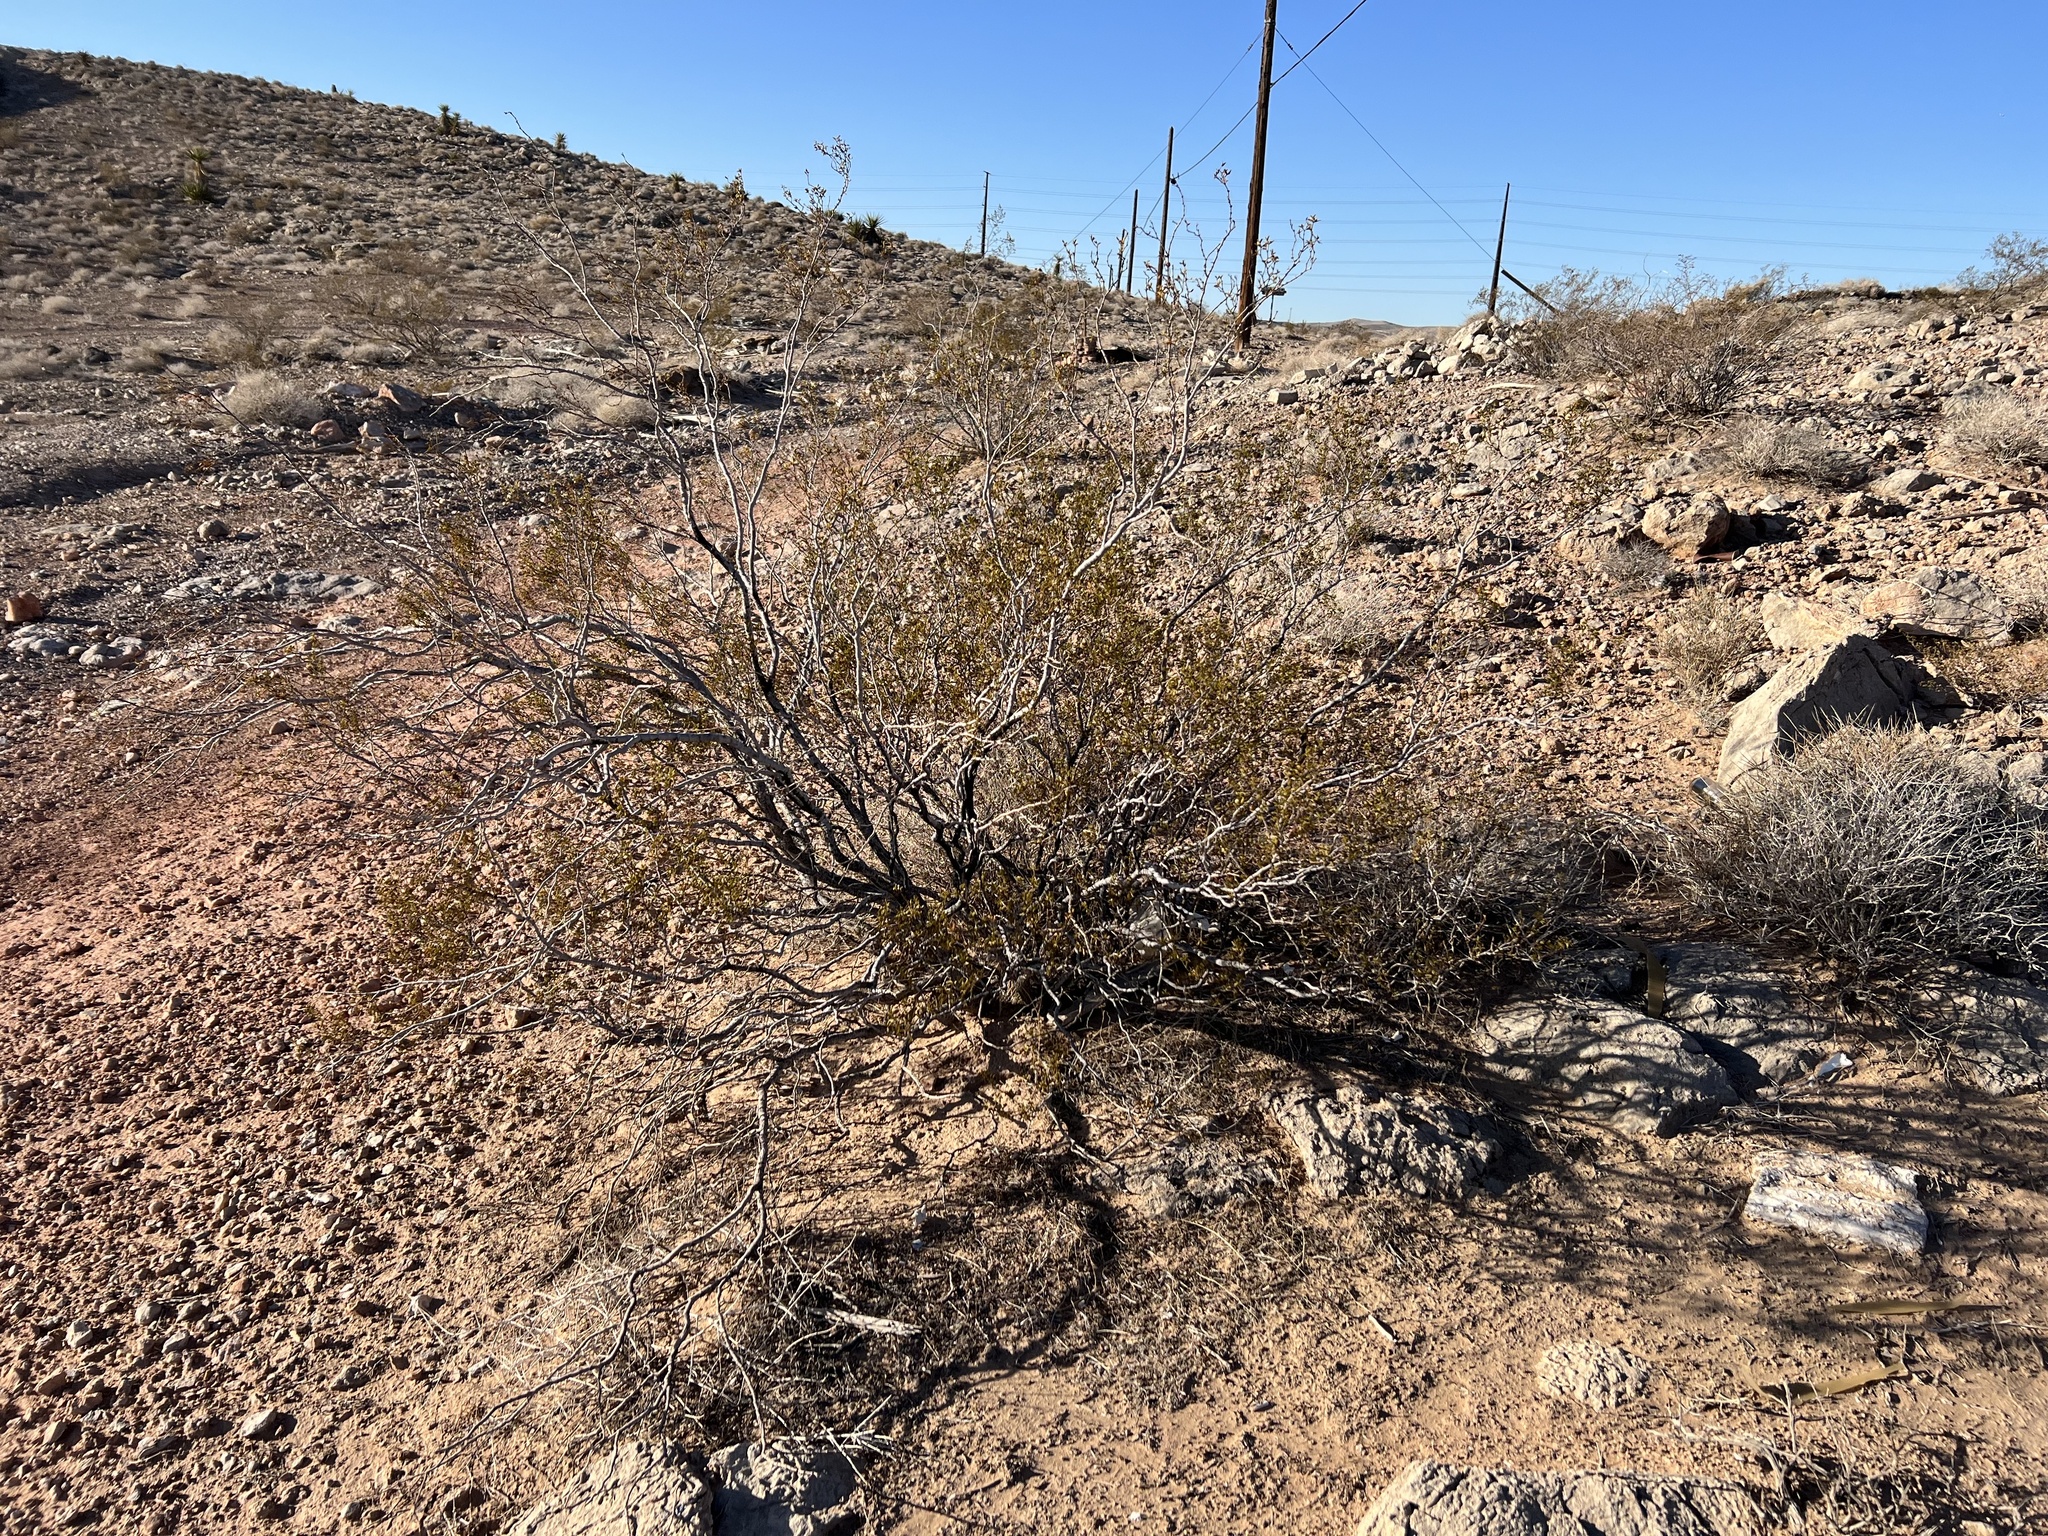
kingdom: Plantae
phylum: Tracheophyta
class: Magnoliopsida
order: Zygophyllales
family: Zygophyllaceae
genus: Larrea
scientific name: Larrea tridentata
